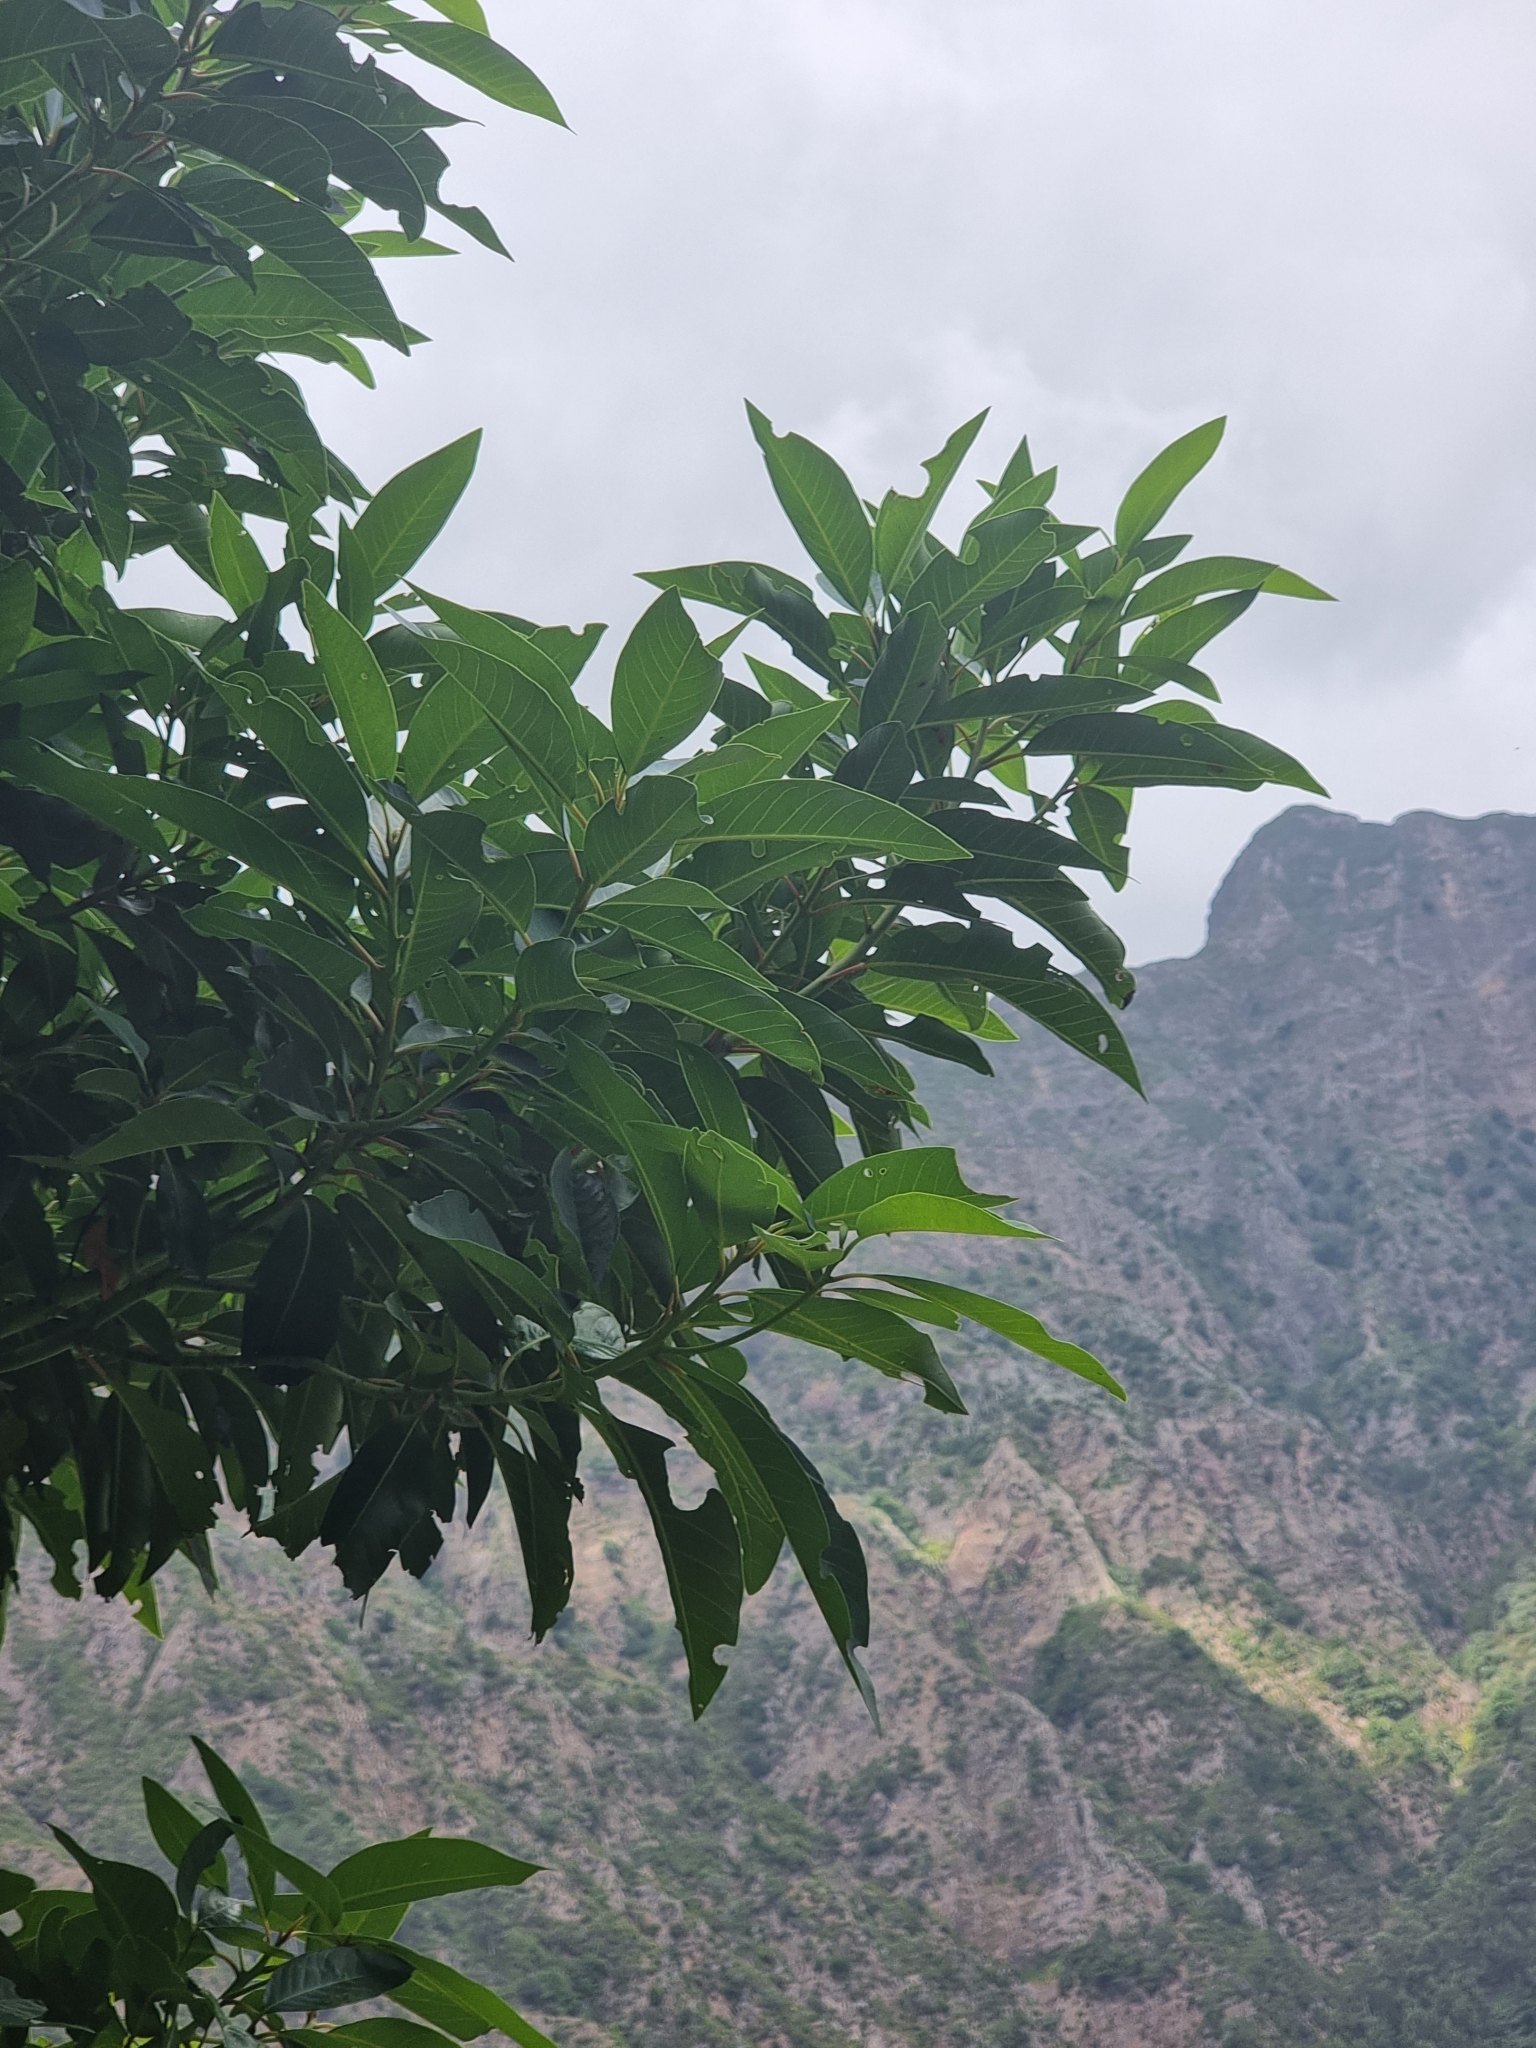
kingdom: Plantae
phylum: Tracheophyta
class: Magnoliopsida
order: Laurales
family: Lauraceae
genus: Persea
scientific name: Persea indica
